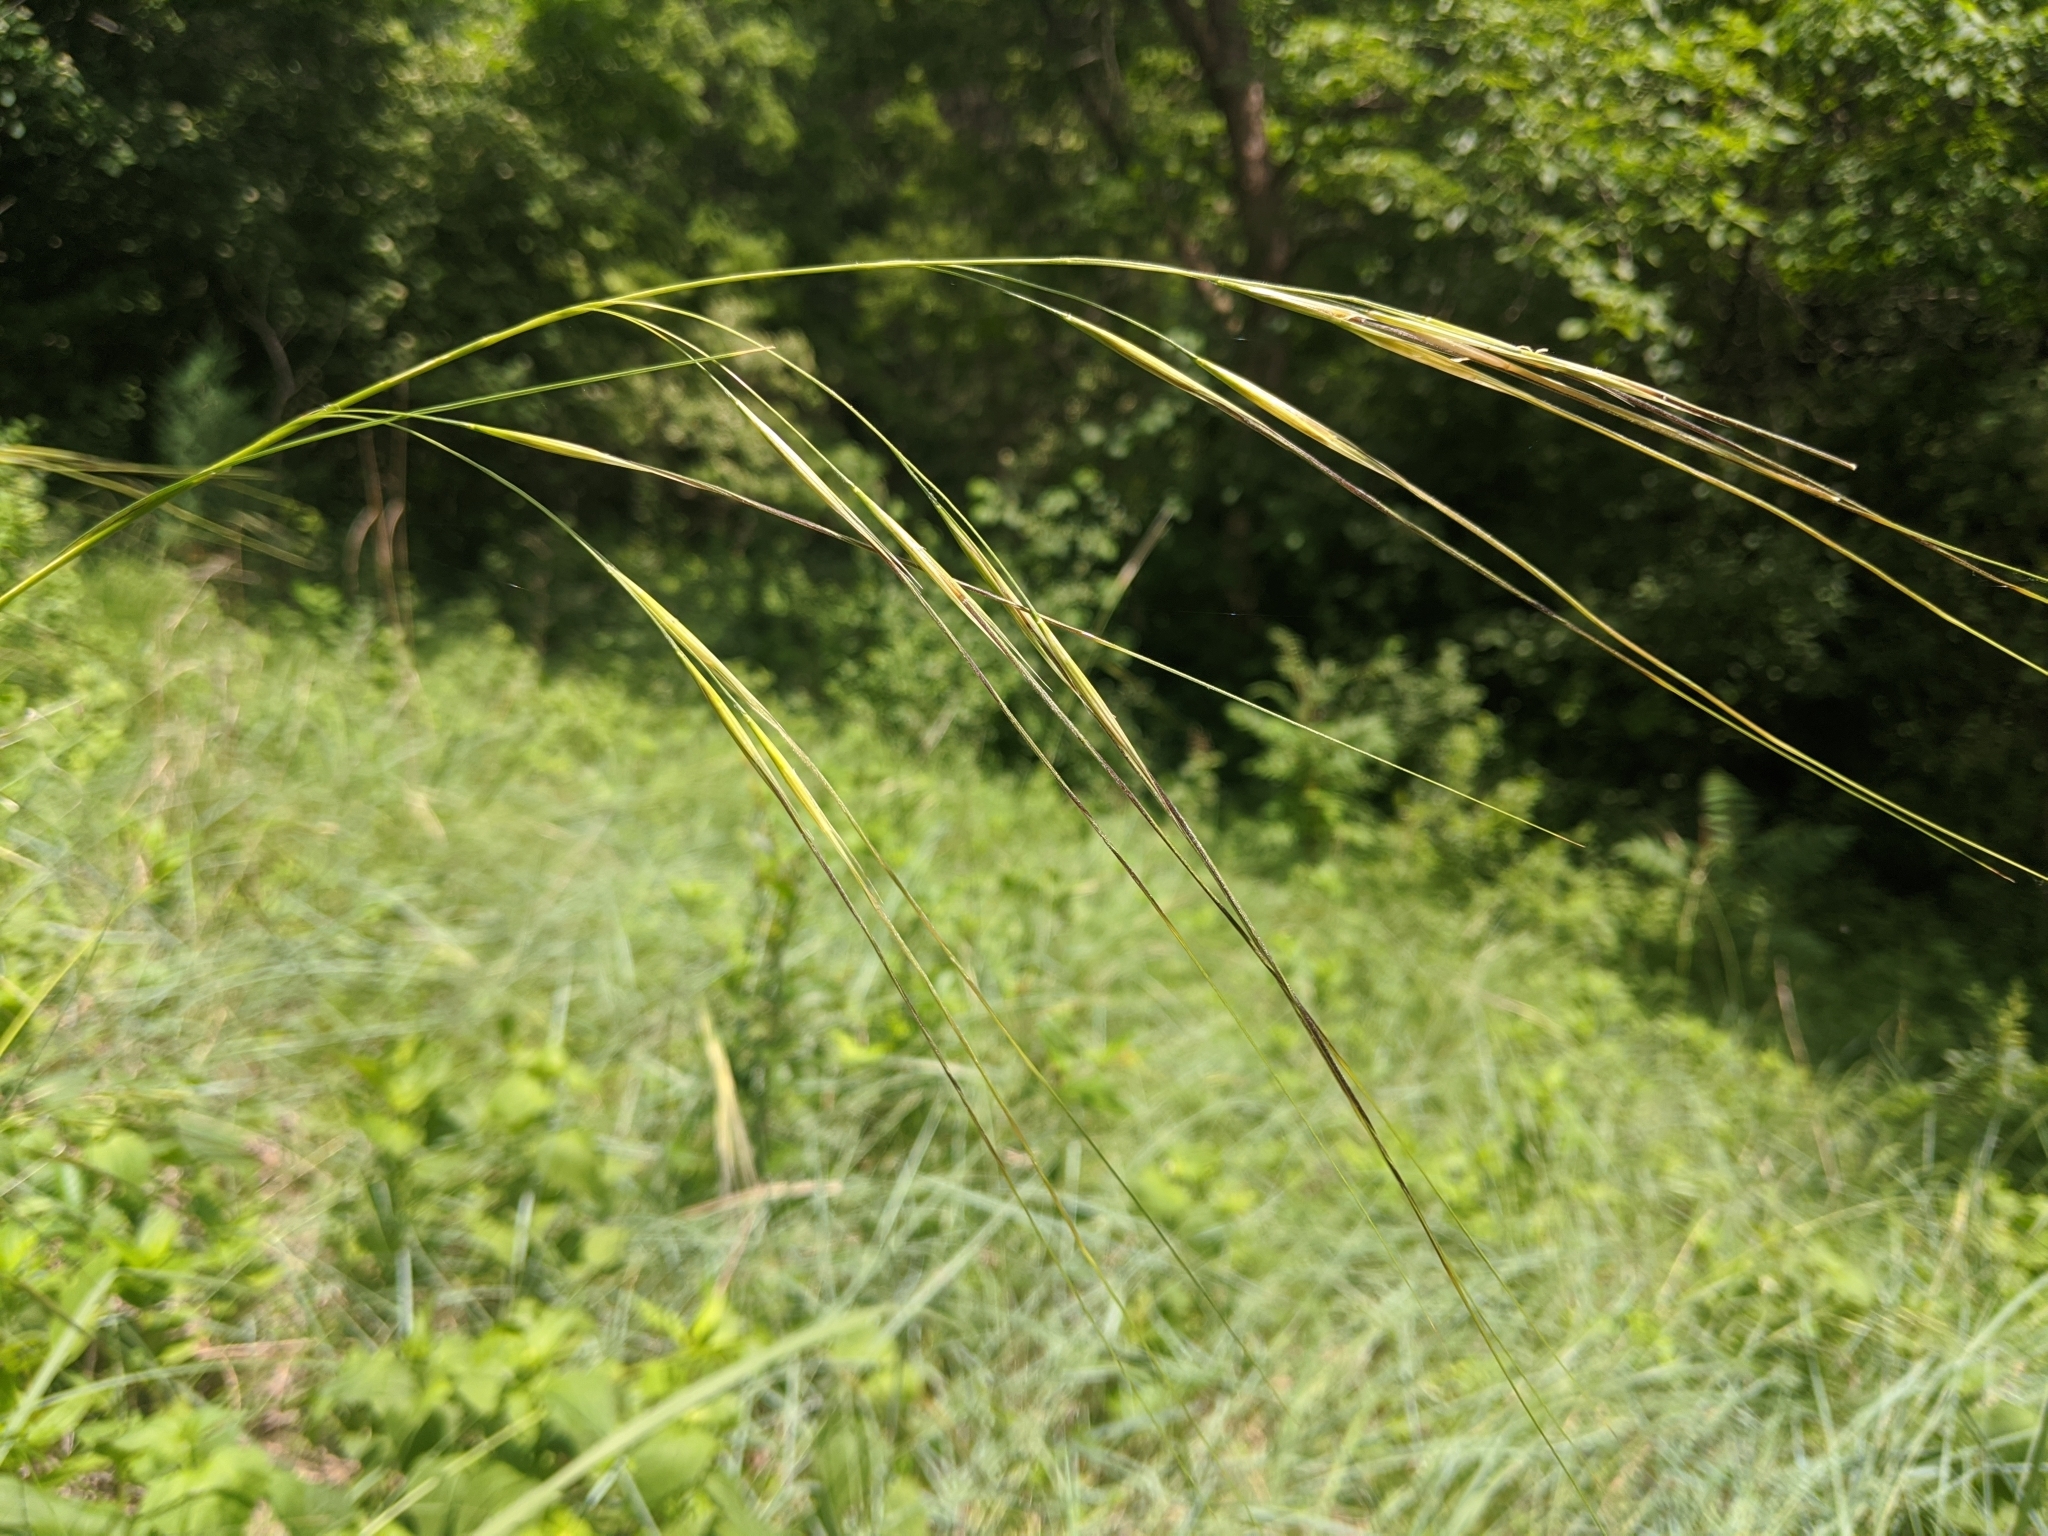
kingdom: Plantae
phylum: Tracheophyta
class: Liliopsida
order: Poales
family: Poaceae
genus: Hesperostipa
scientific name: Hesperostipa spartea
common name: Porcupine grass
